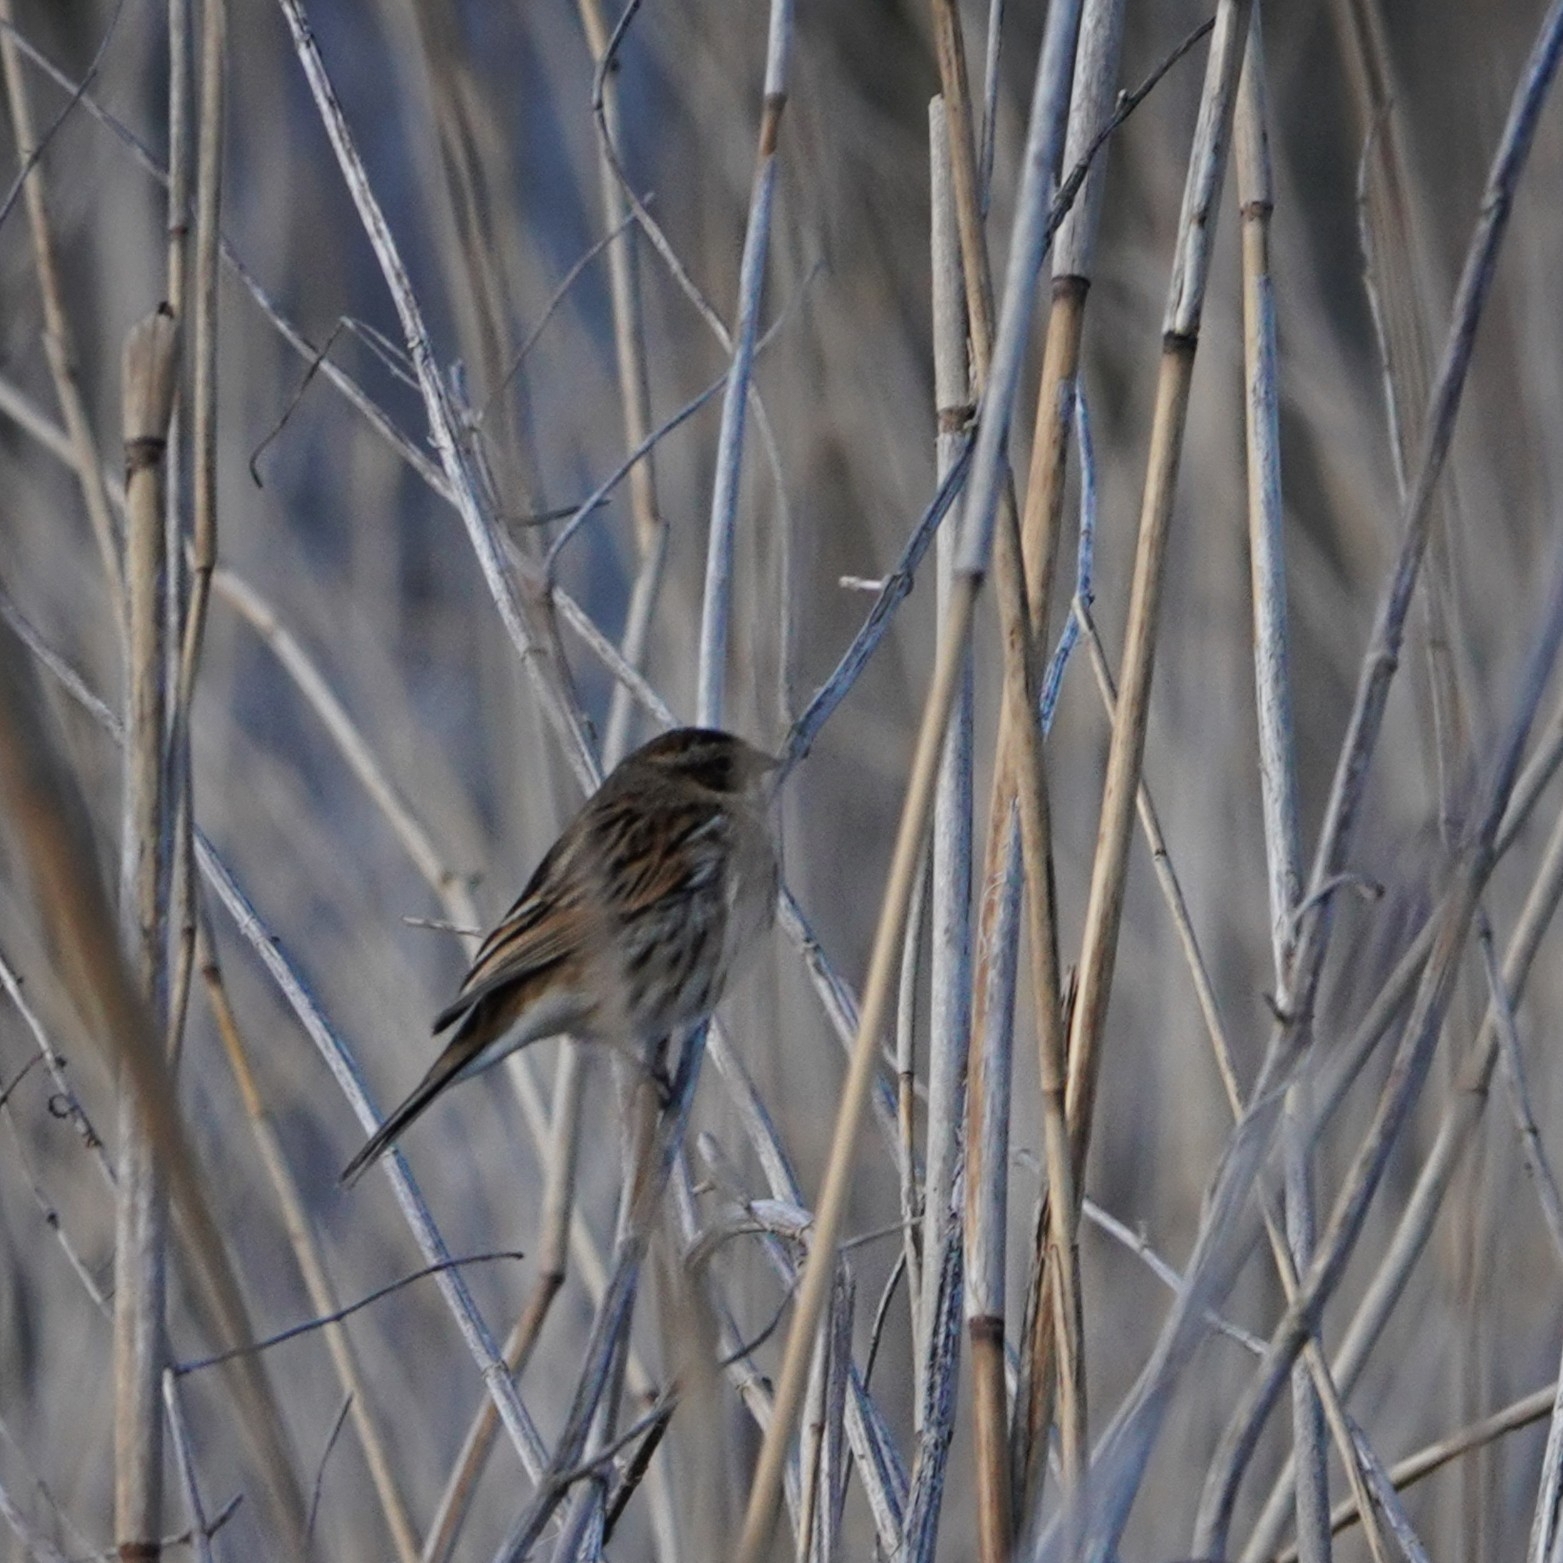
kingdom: Animalia
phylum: Chordata
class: Aves
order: Passeriformes
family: Emberizidae
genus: Emberiza
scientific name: Emberiza schoeniclus
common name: Reed bunting
